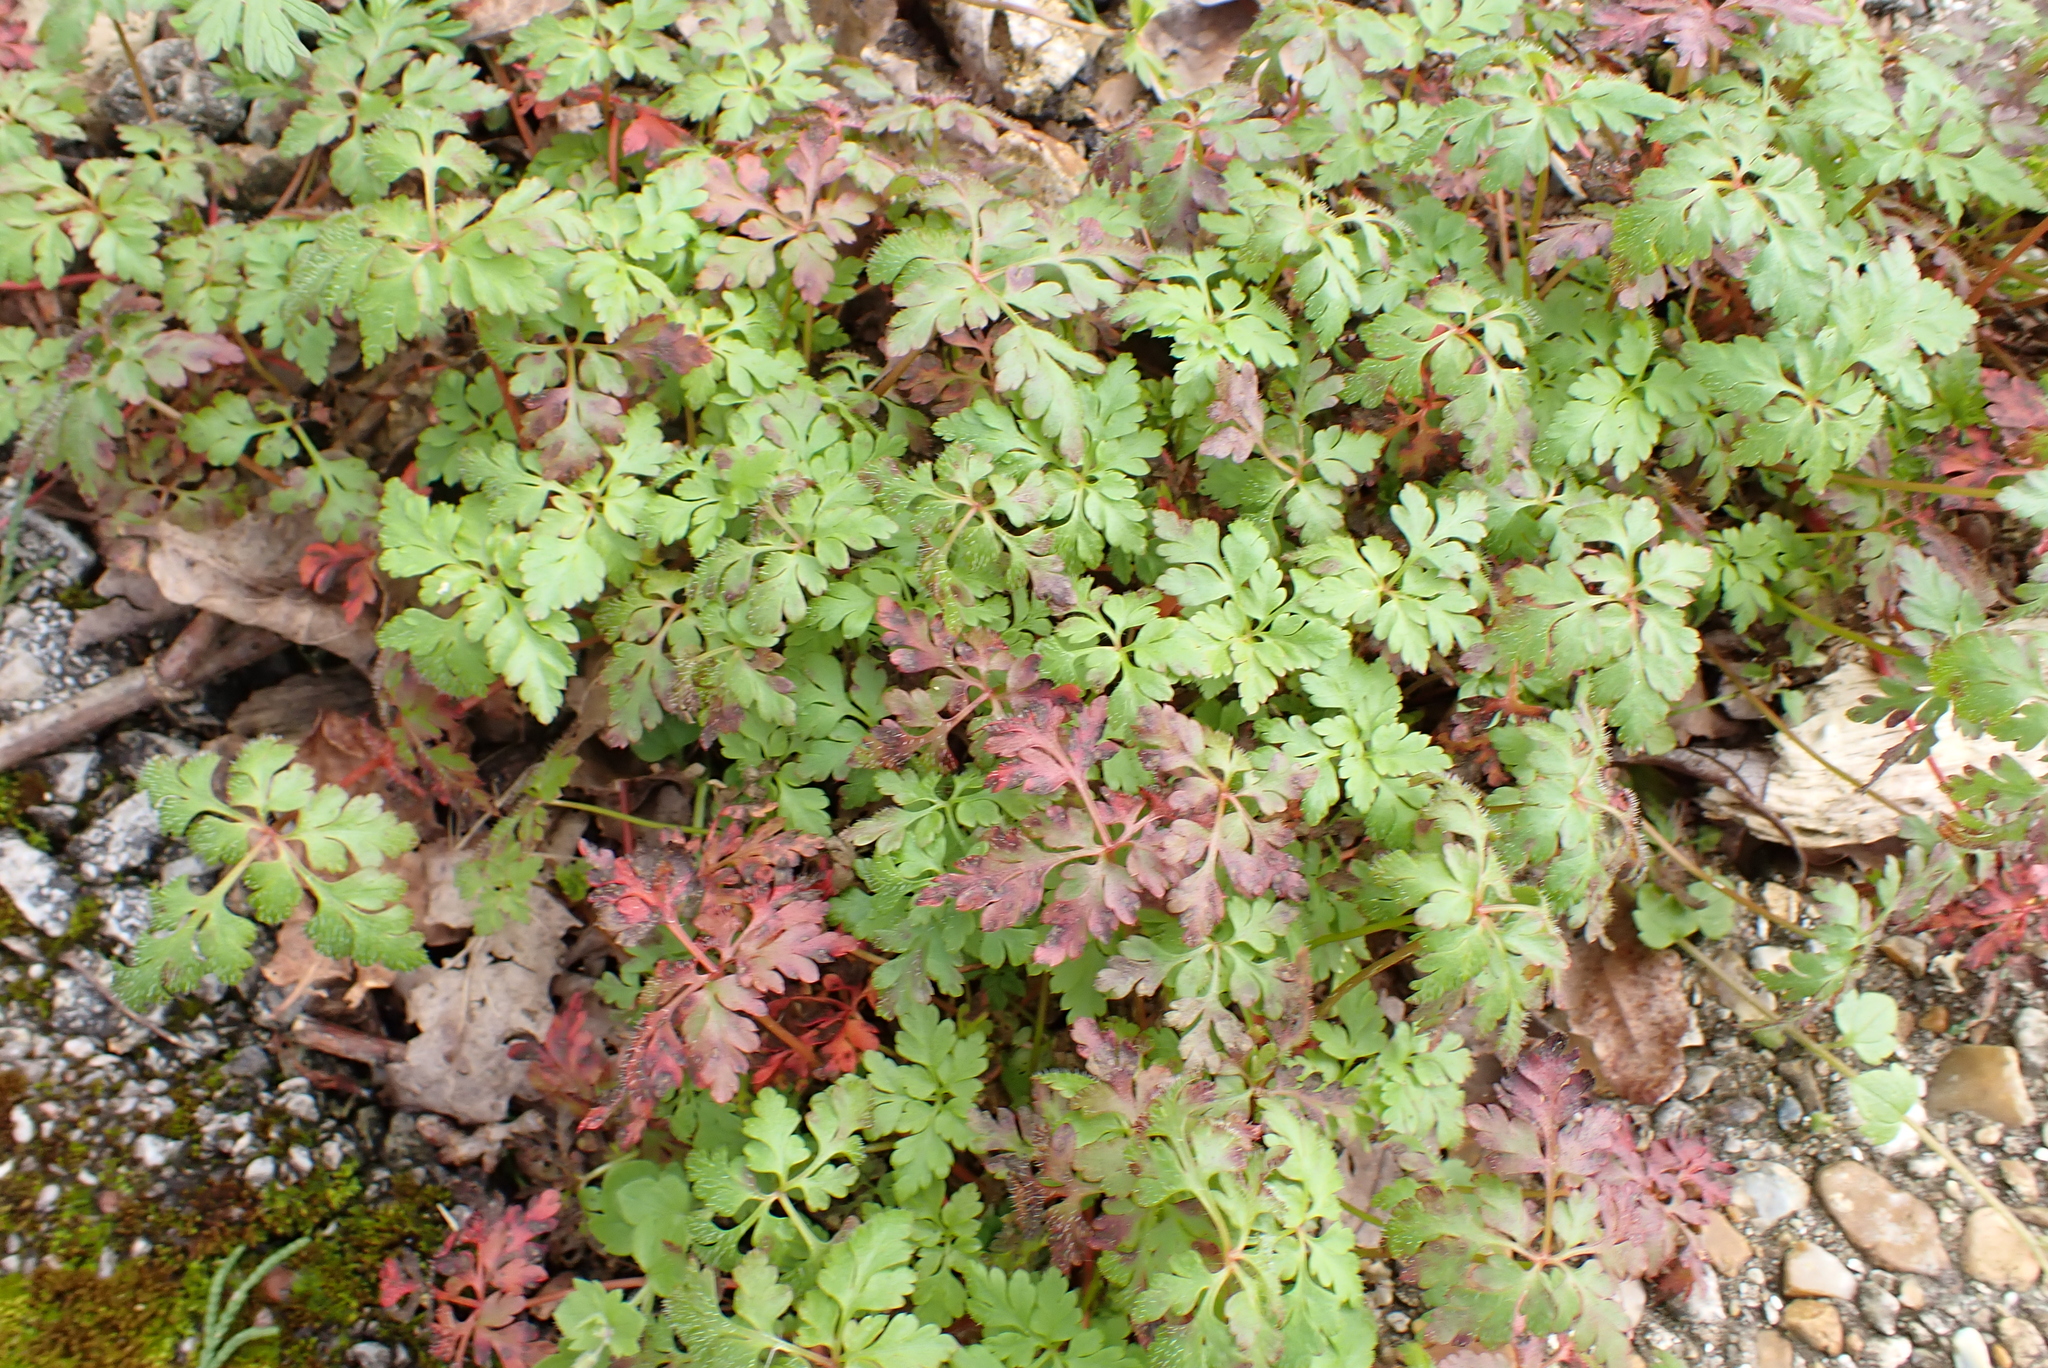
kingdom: Plantae
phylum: Tracheophyta
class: Magnoliopsida
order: Geraniales
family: Geraniaceae
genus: Geranium
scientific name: Geranium robertianum
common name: Herb-robert
